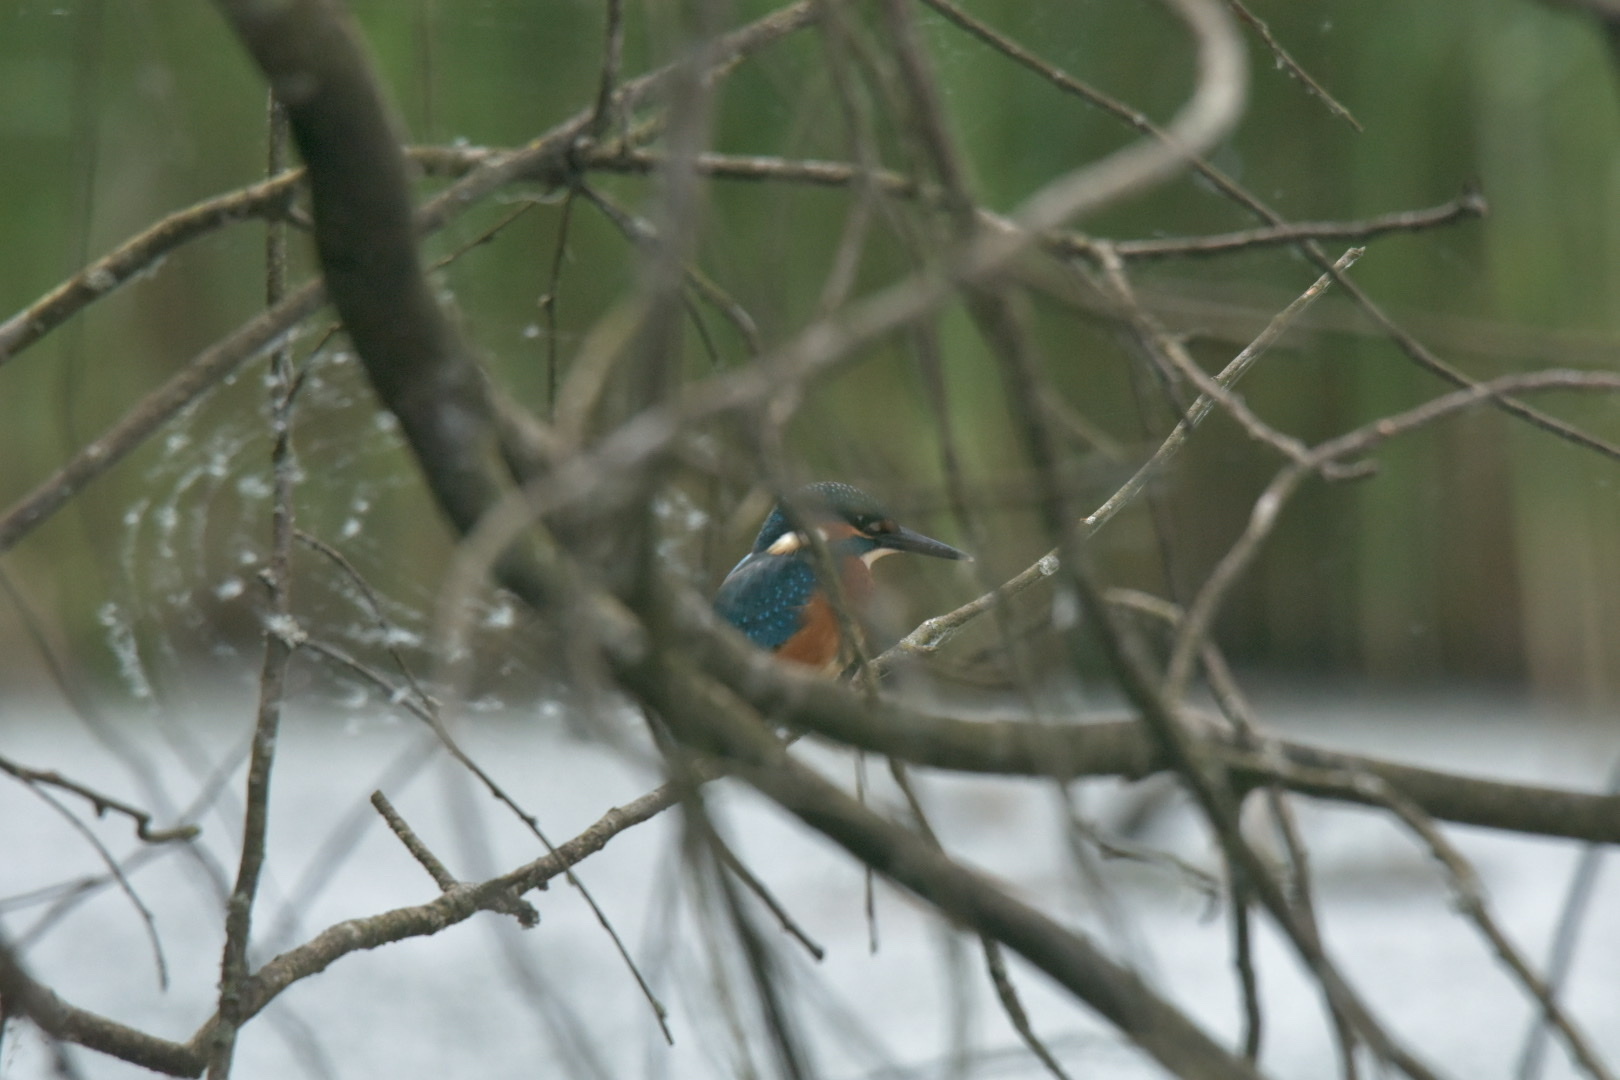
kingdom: Animalia
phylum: Chordata
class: Aves
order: Coraciiformes
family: Alcedinidae
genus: Alcedo
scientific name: Alcedo atthis
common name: Common kingfisher
